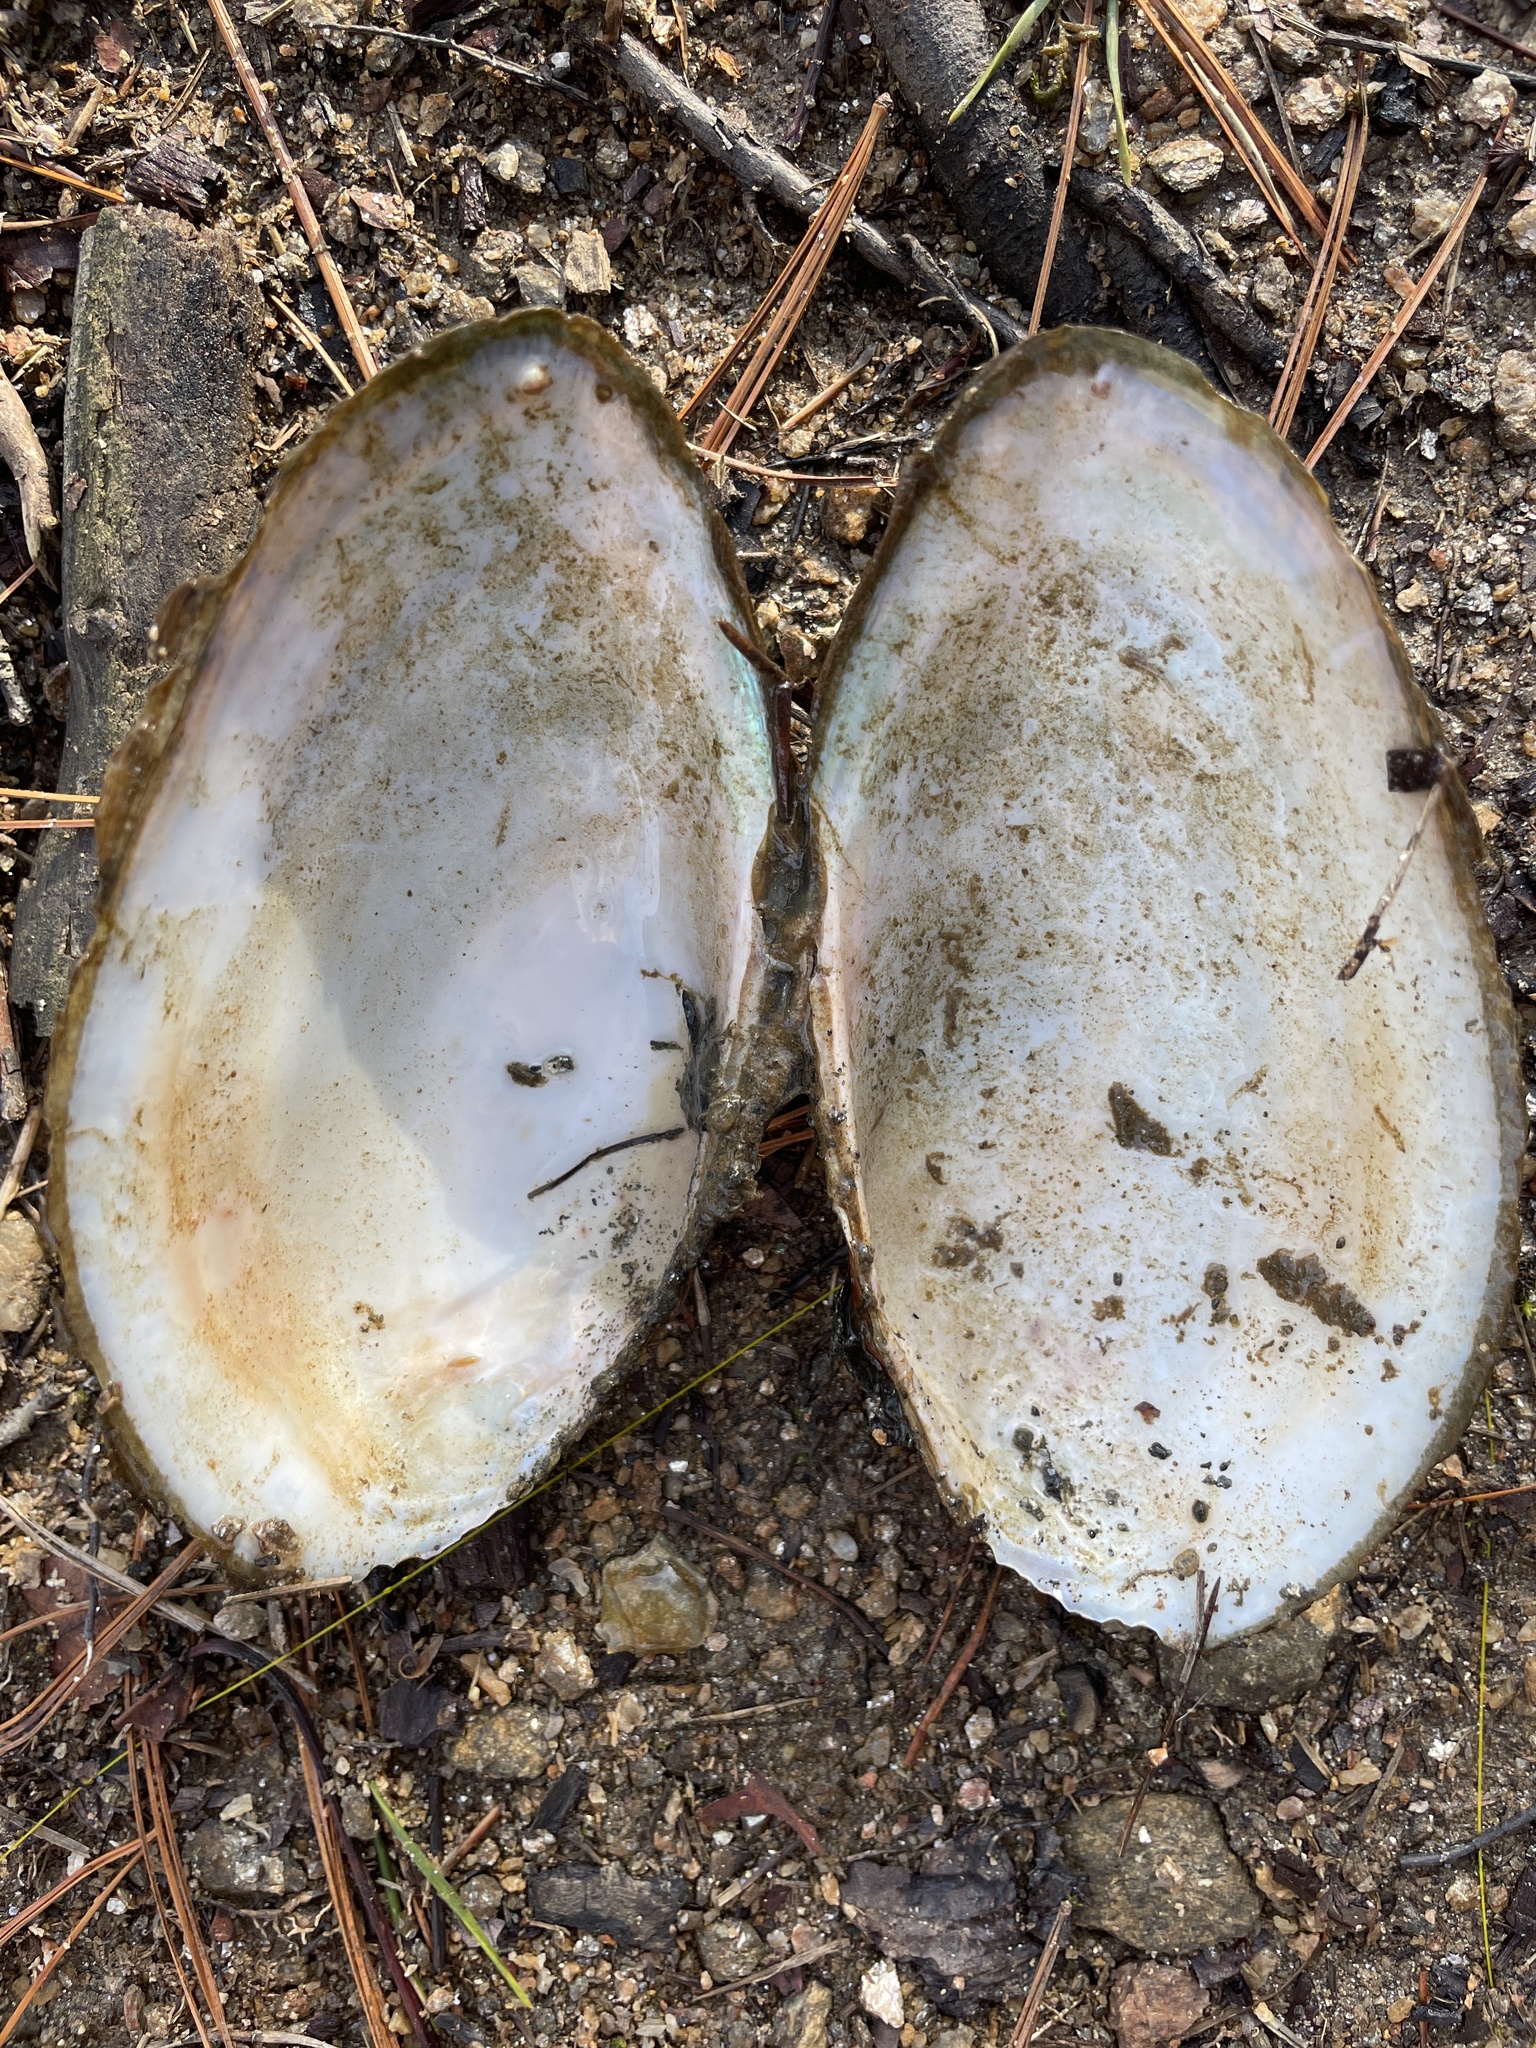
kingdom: Animalia
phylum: Mollusca
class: Bivalvia
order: Unionida
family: Unionidae
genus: Pyganodon
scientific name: Pyganodon grandis
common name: Giant floater
